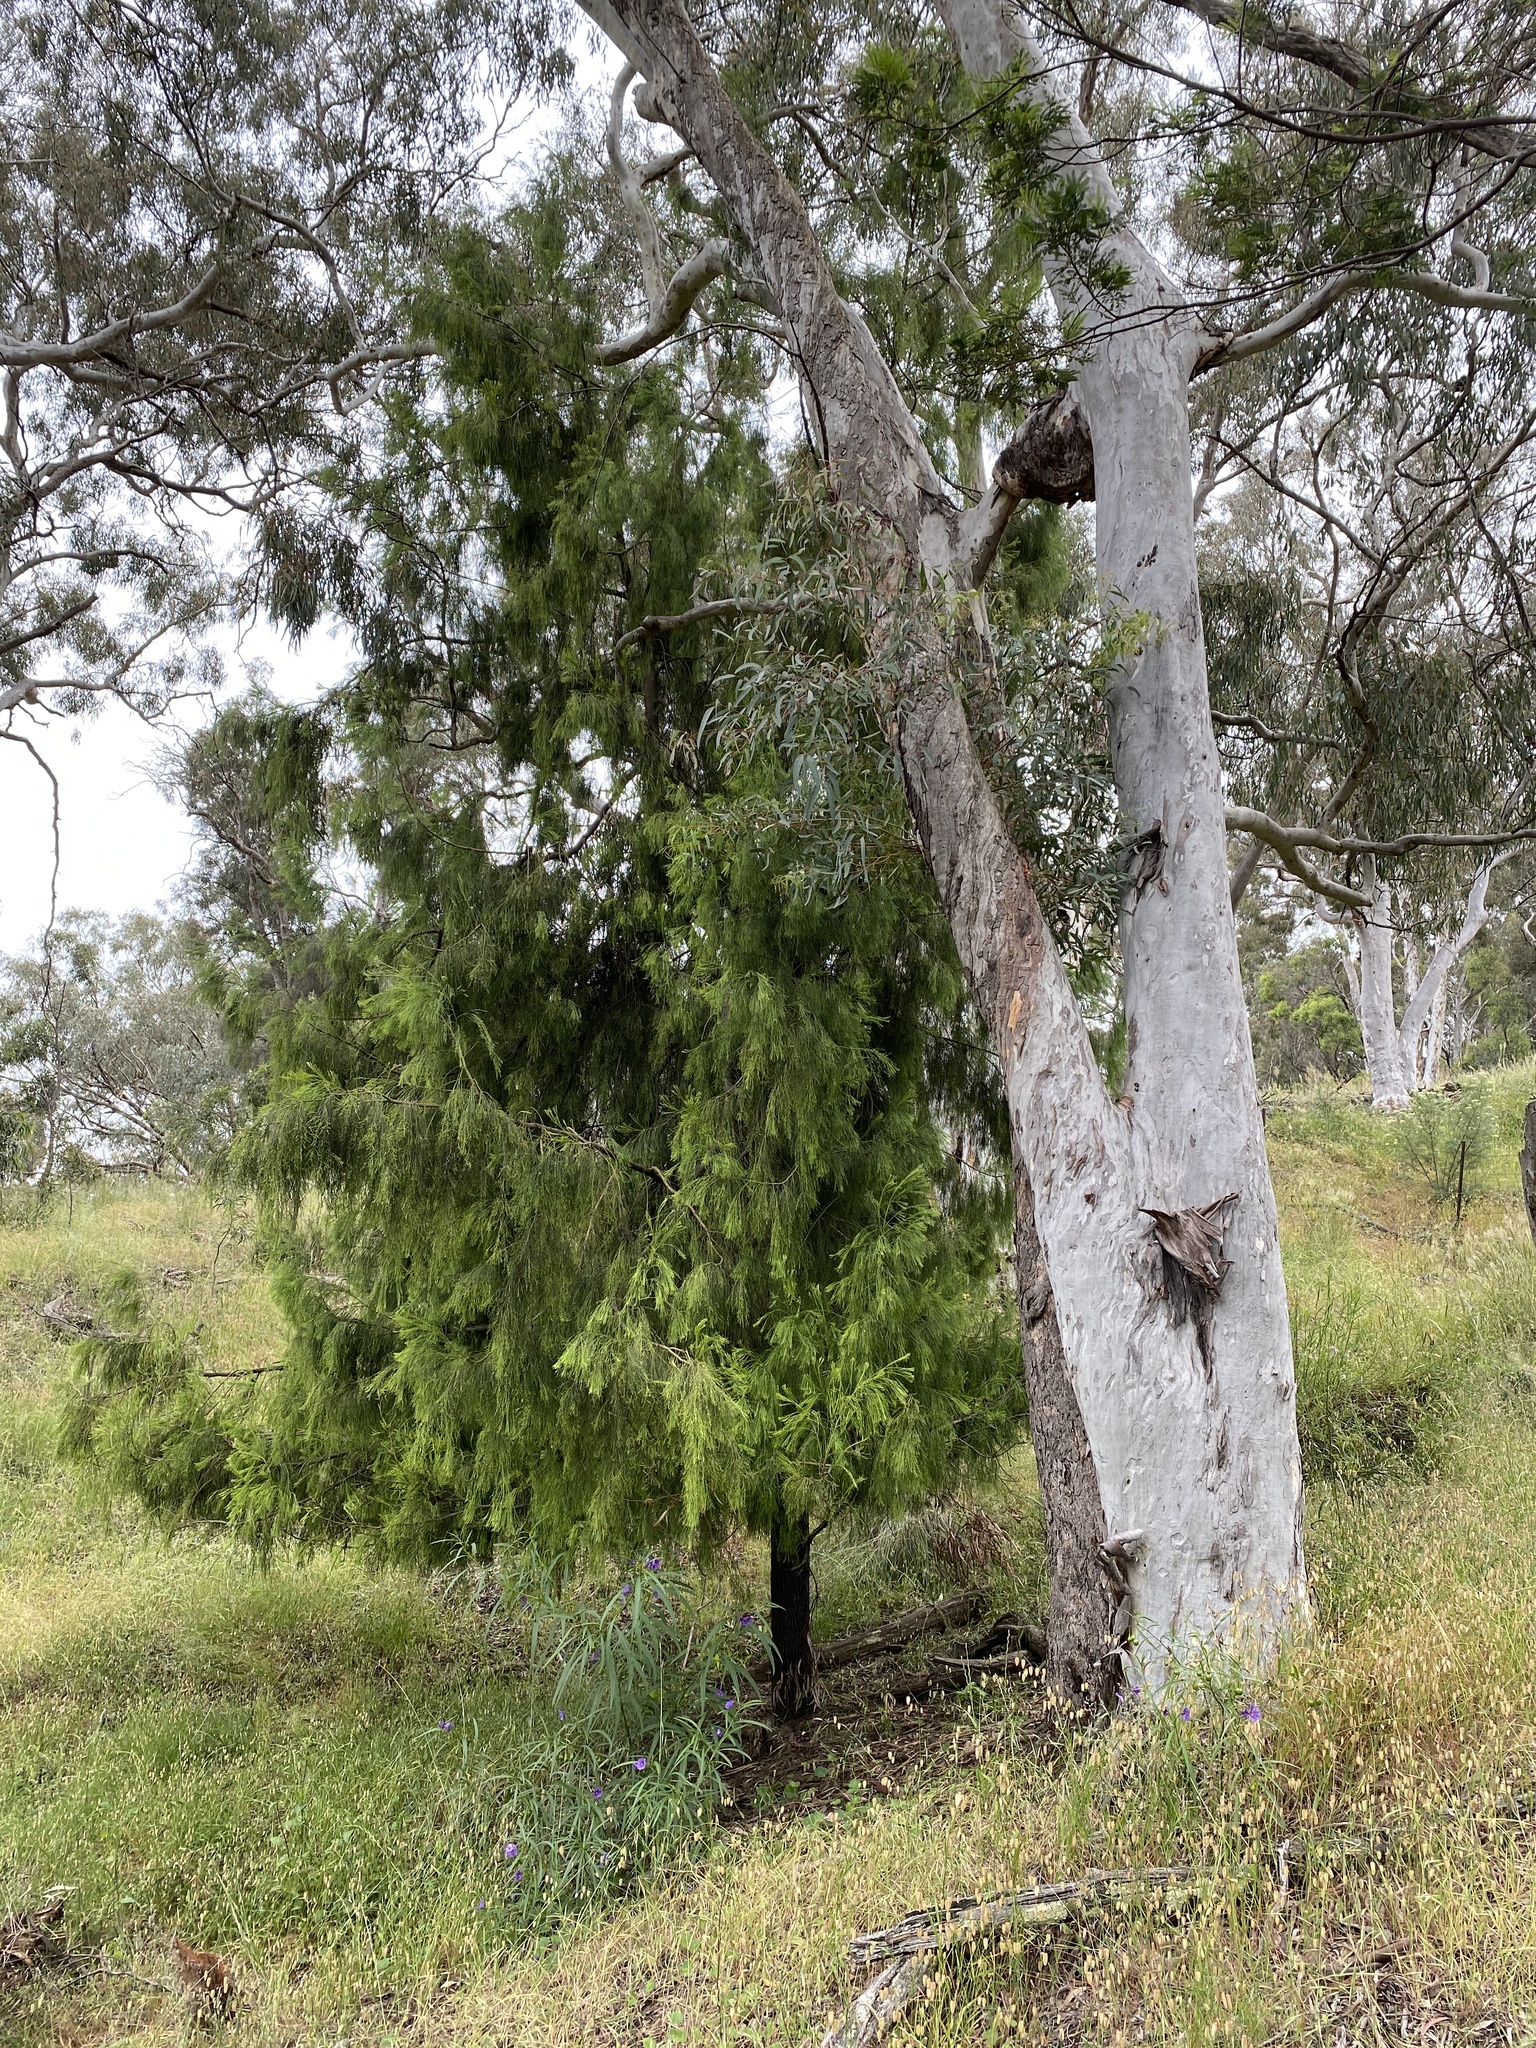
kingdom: Plantae
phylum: Tracheophyta
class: Magnoliopsida
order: Santalales
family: Santalaceae
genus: Exocarpos
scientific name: Exocarpos cupressiformis
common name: Cherry ballart
